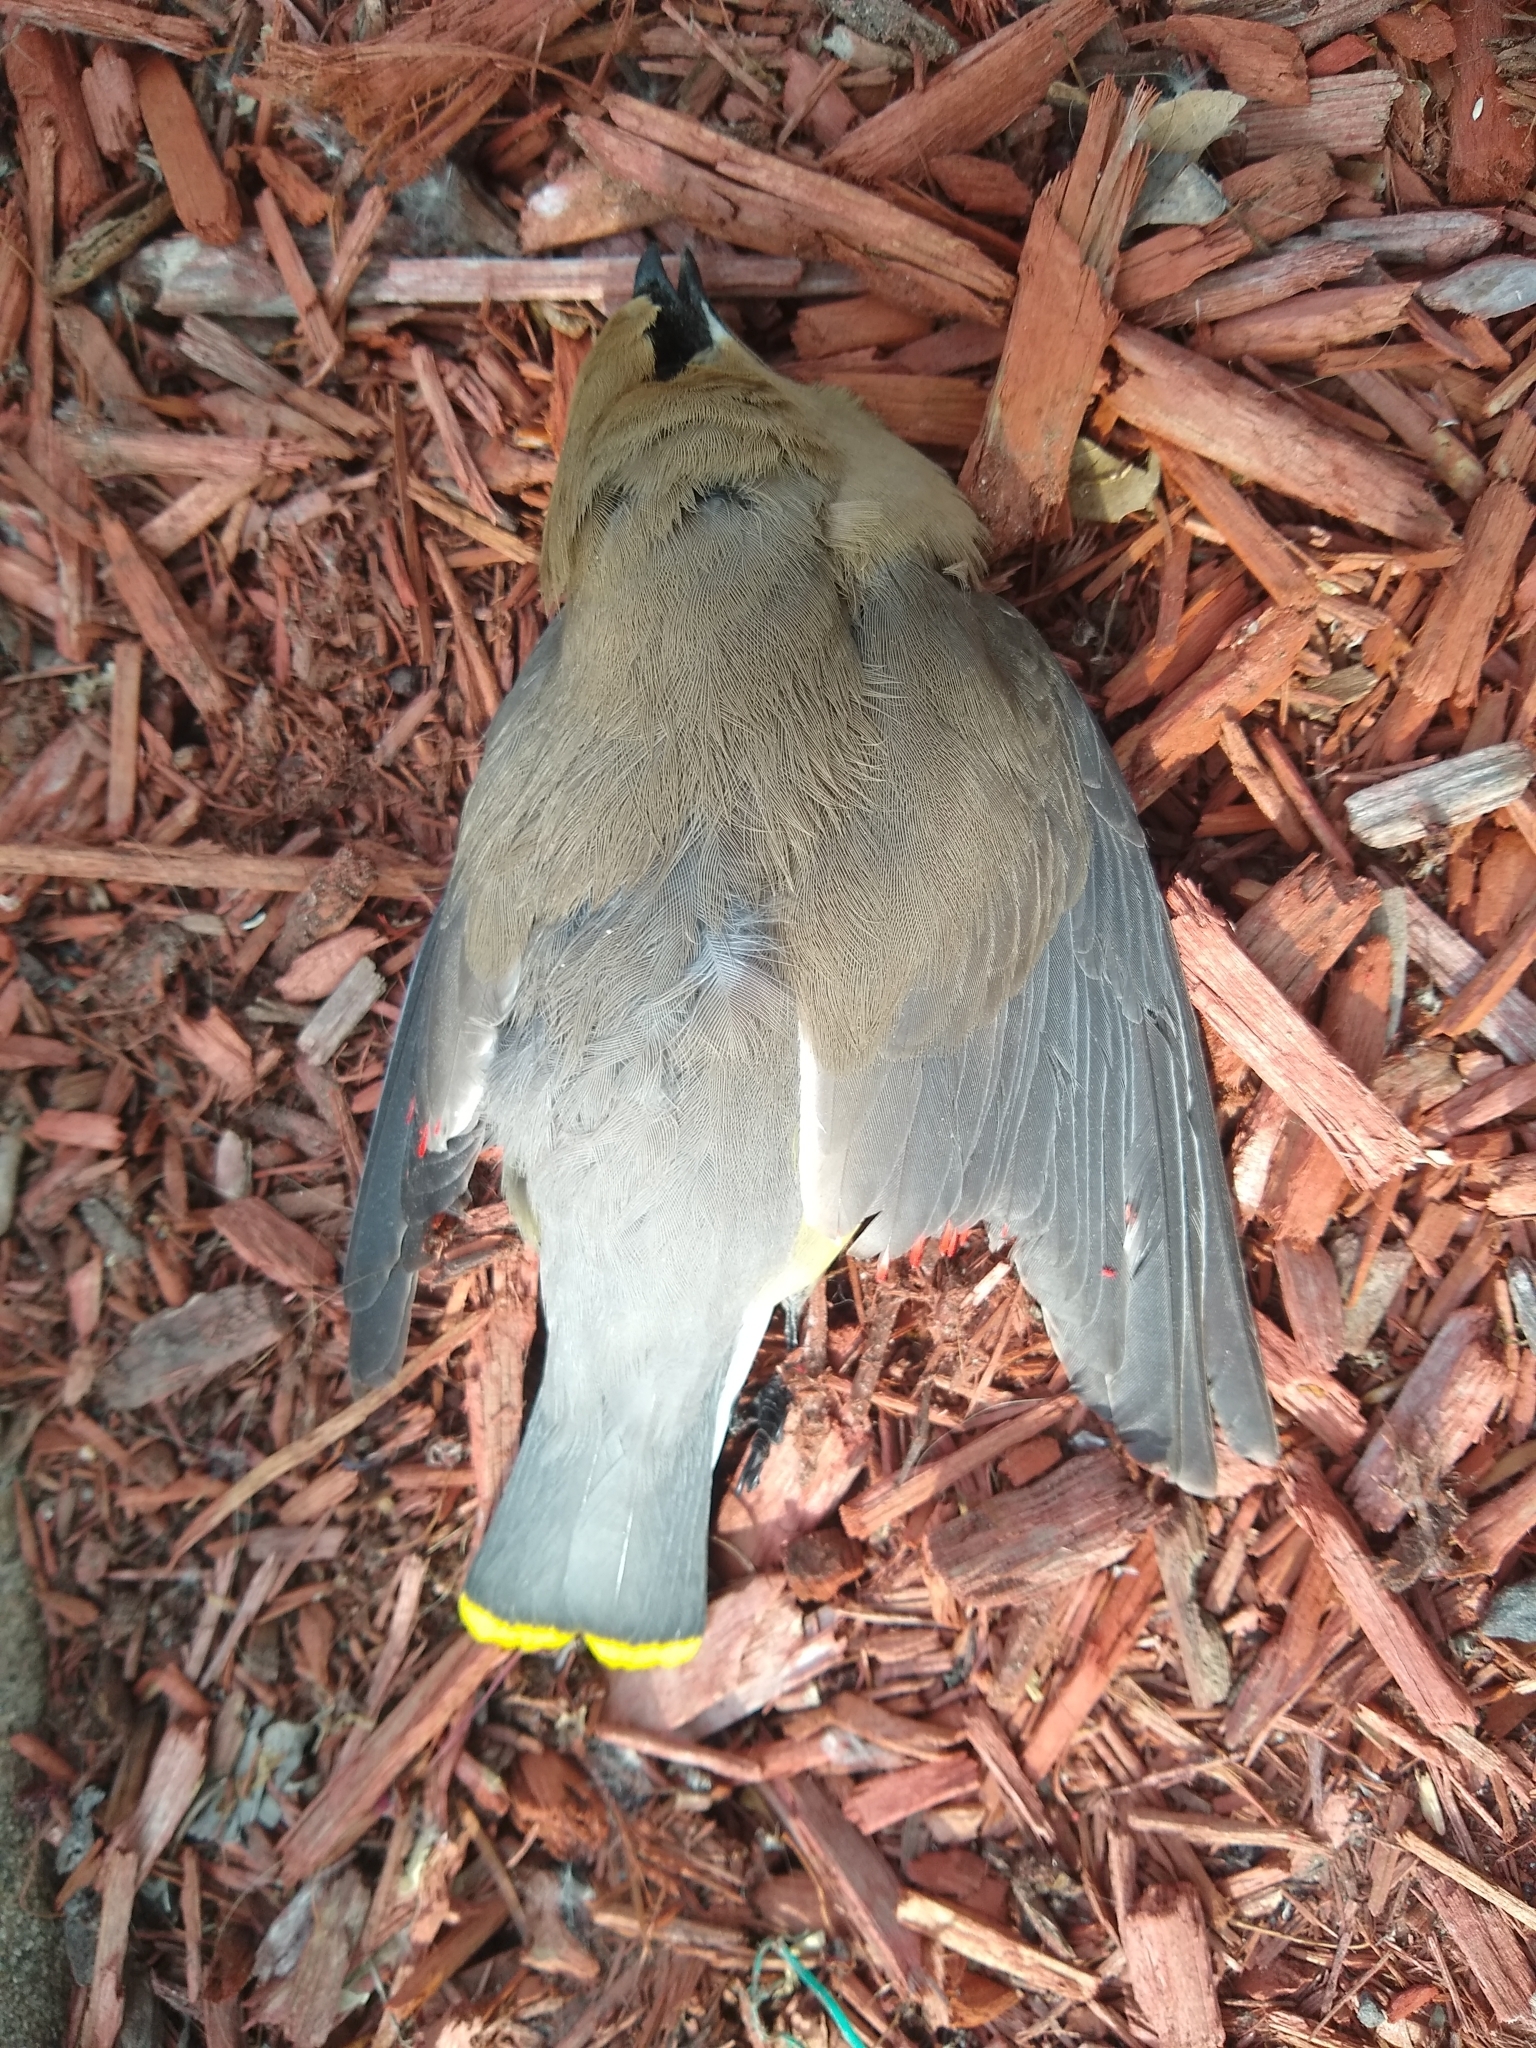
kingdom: Animalia
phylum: Chordata
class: Aves
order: Passeriformes
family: Bombycillidae
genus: Bombycilla
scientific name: Bombycilla cedrorum
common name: Cedar waxwing
